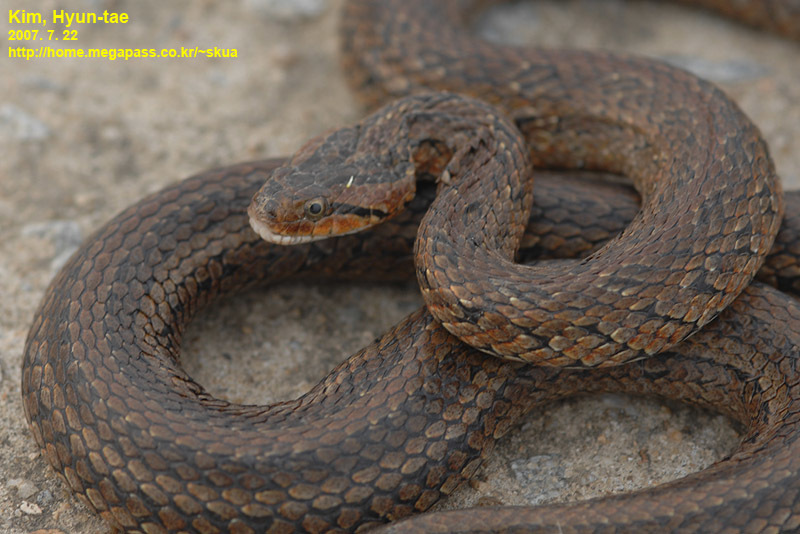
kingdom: Animalia
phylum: Chordata
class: Squamata
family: Colubridae
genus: Oocatochus
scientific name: Oocatochus rufodorsatus
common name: Frog-eating rat snake
